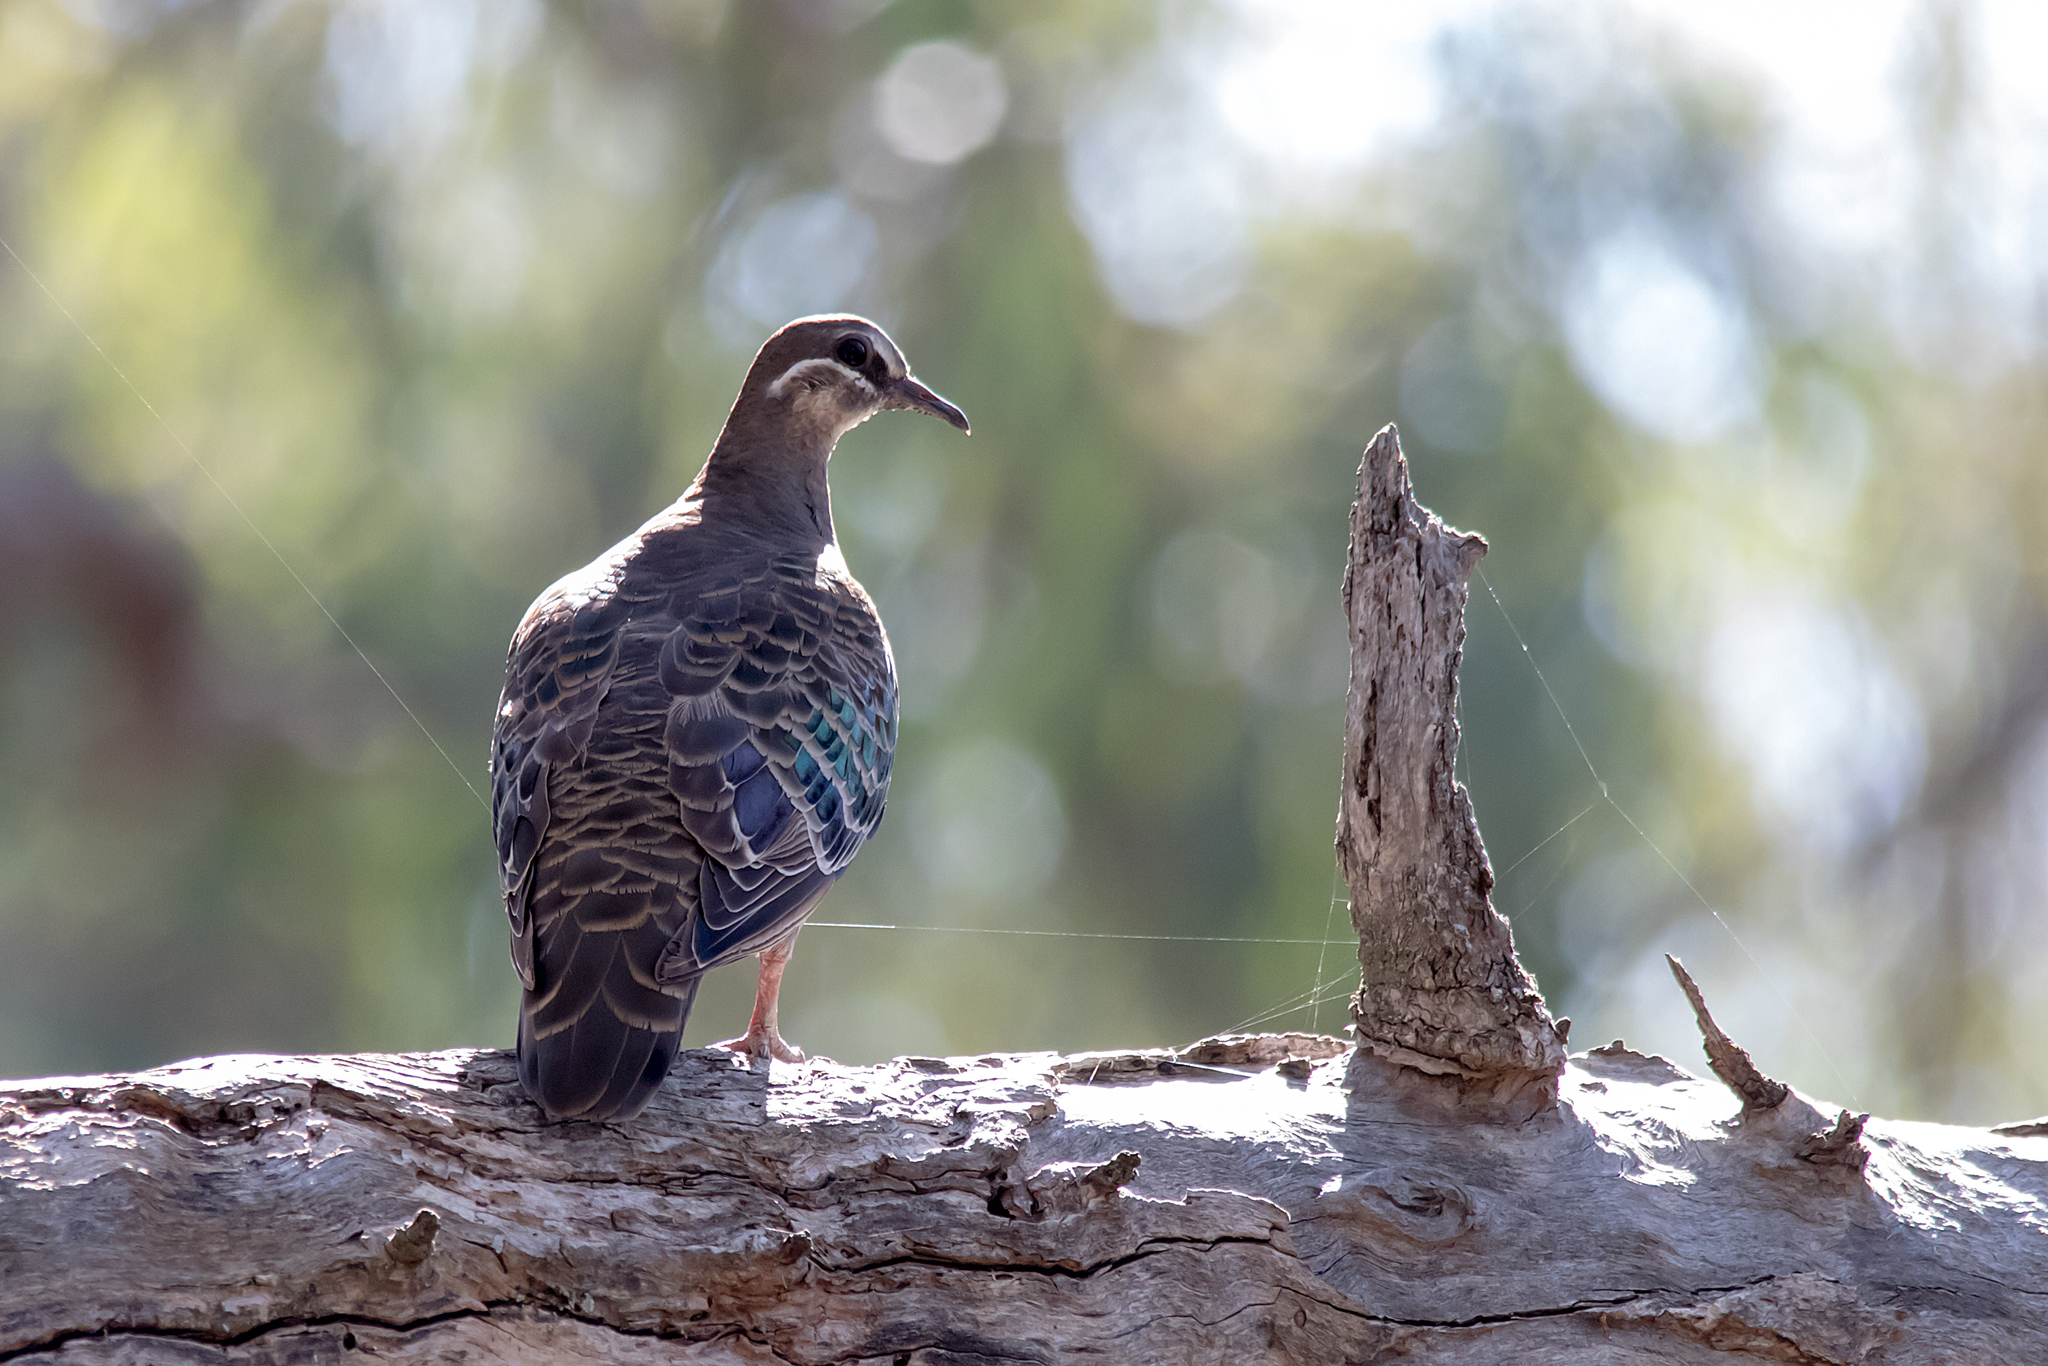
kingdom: Animalia
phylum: Chordata
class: Aves
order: Columbiformes
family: Columbidae
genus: Phaps
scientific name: Phaps chalcoptera
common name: Common bronzewing
